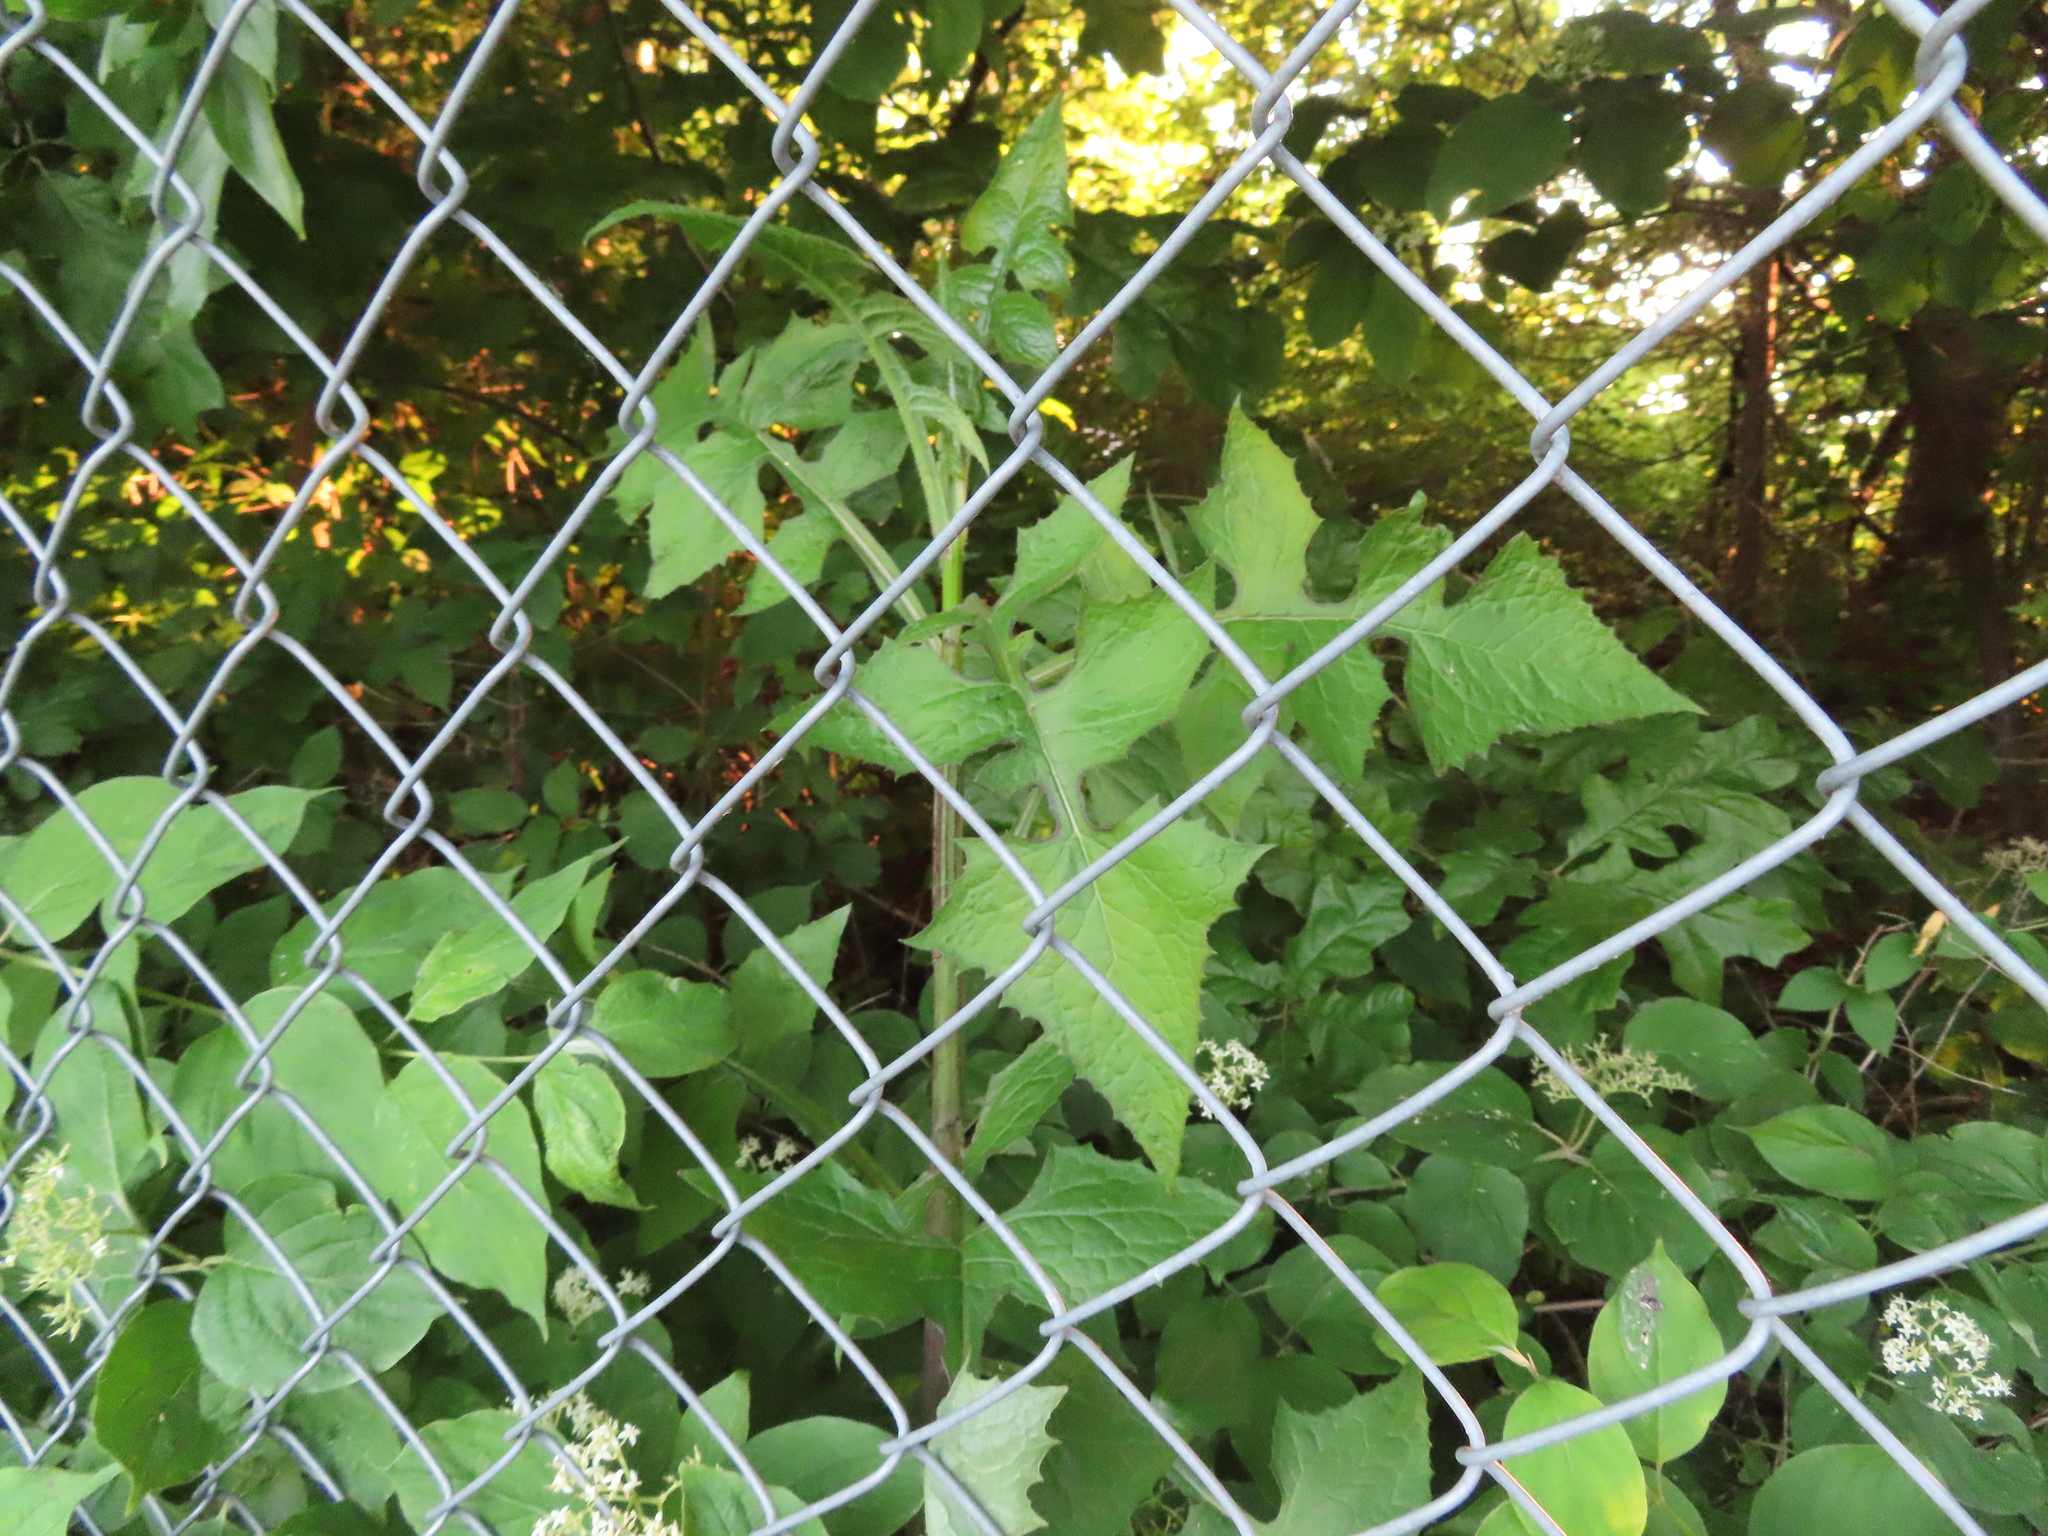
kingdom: Plantae
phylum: Tracheophyta
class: Magnoliopsida
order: Asterales
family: Asteraceae
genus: Lactuca
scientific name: Lactuca floridana
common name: Woodland lettuce
